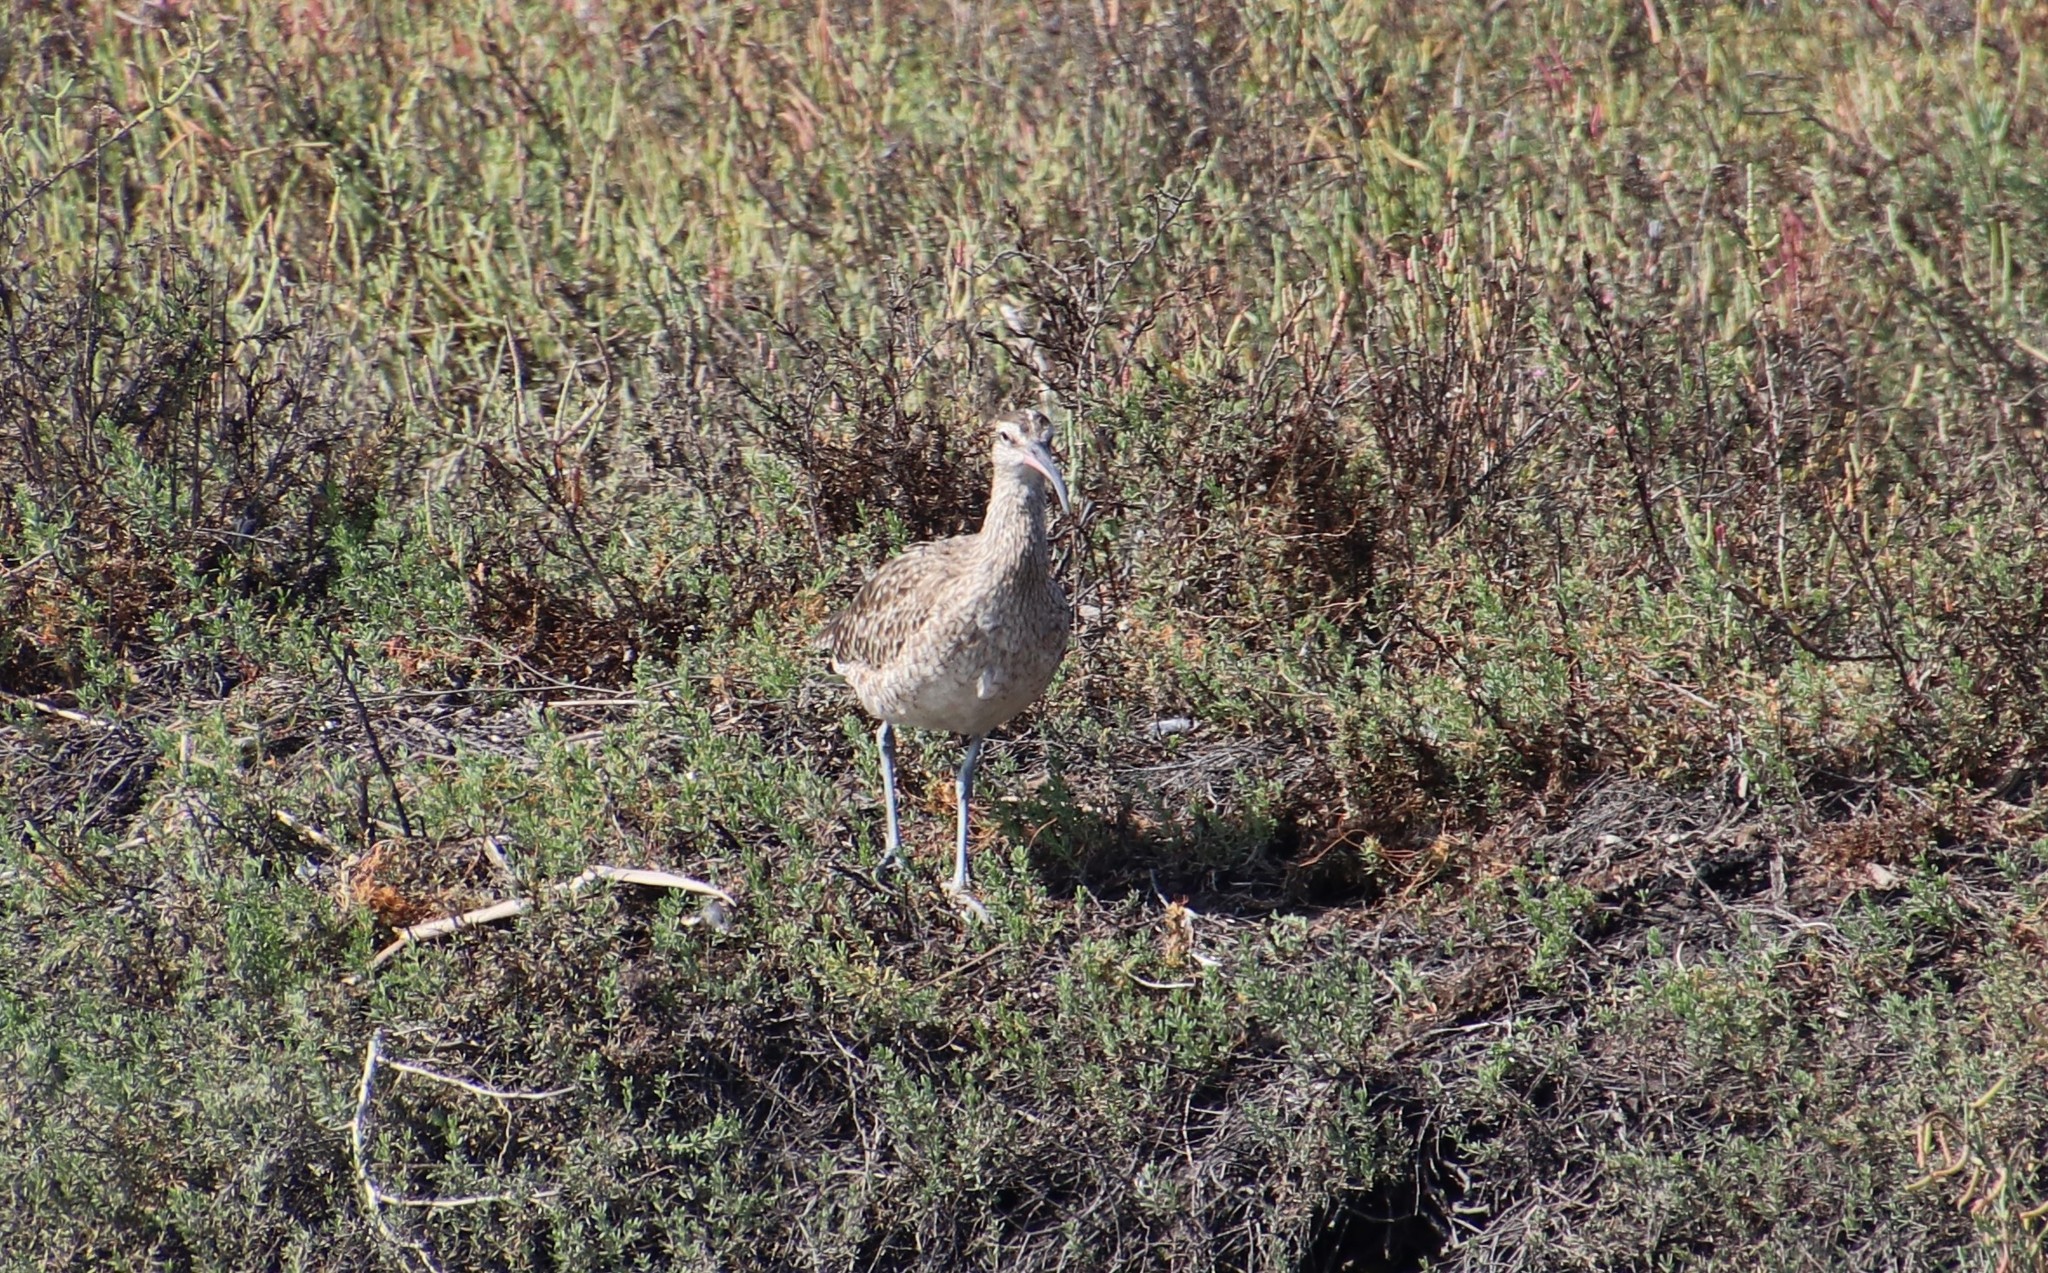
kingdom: Animalia
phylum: Chordata
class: Aves
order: Charadriiformes
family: Scolopacidae
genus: Numenius
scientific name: Numenius phaeopus
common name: Whimbrel
